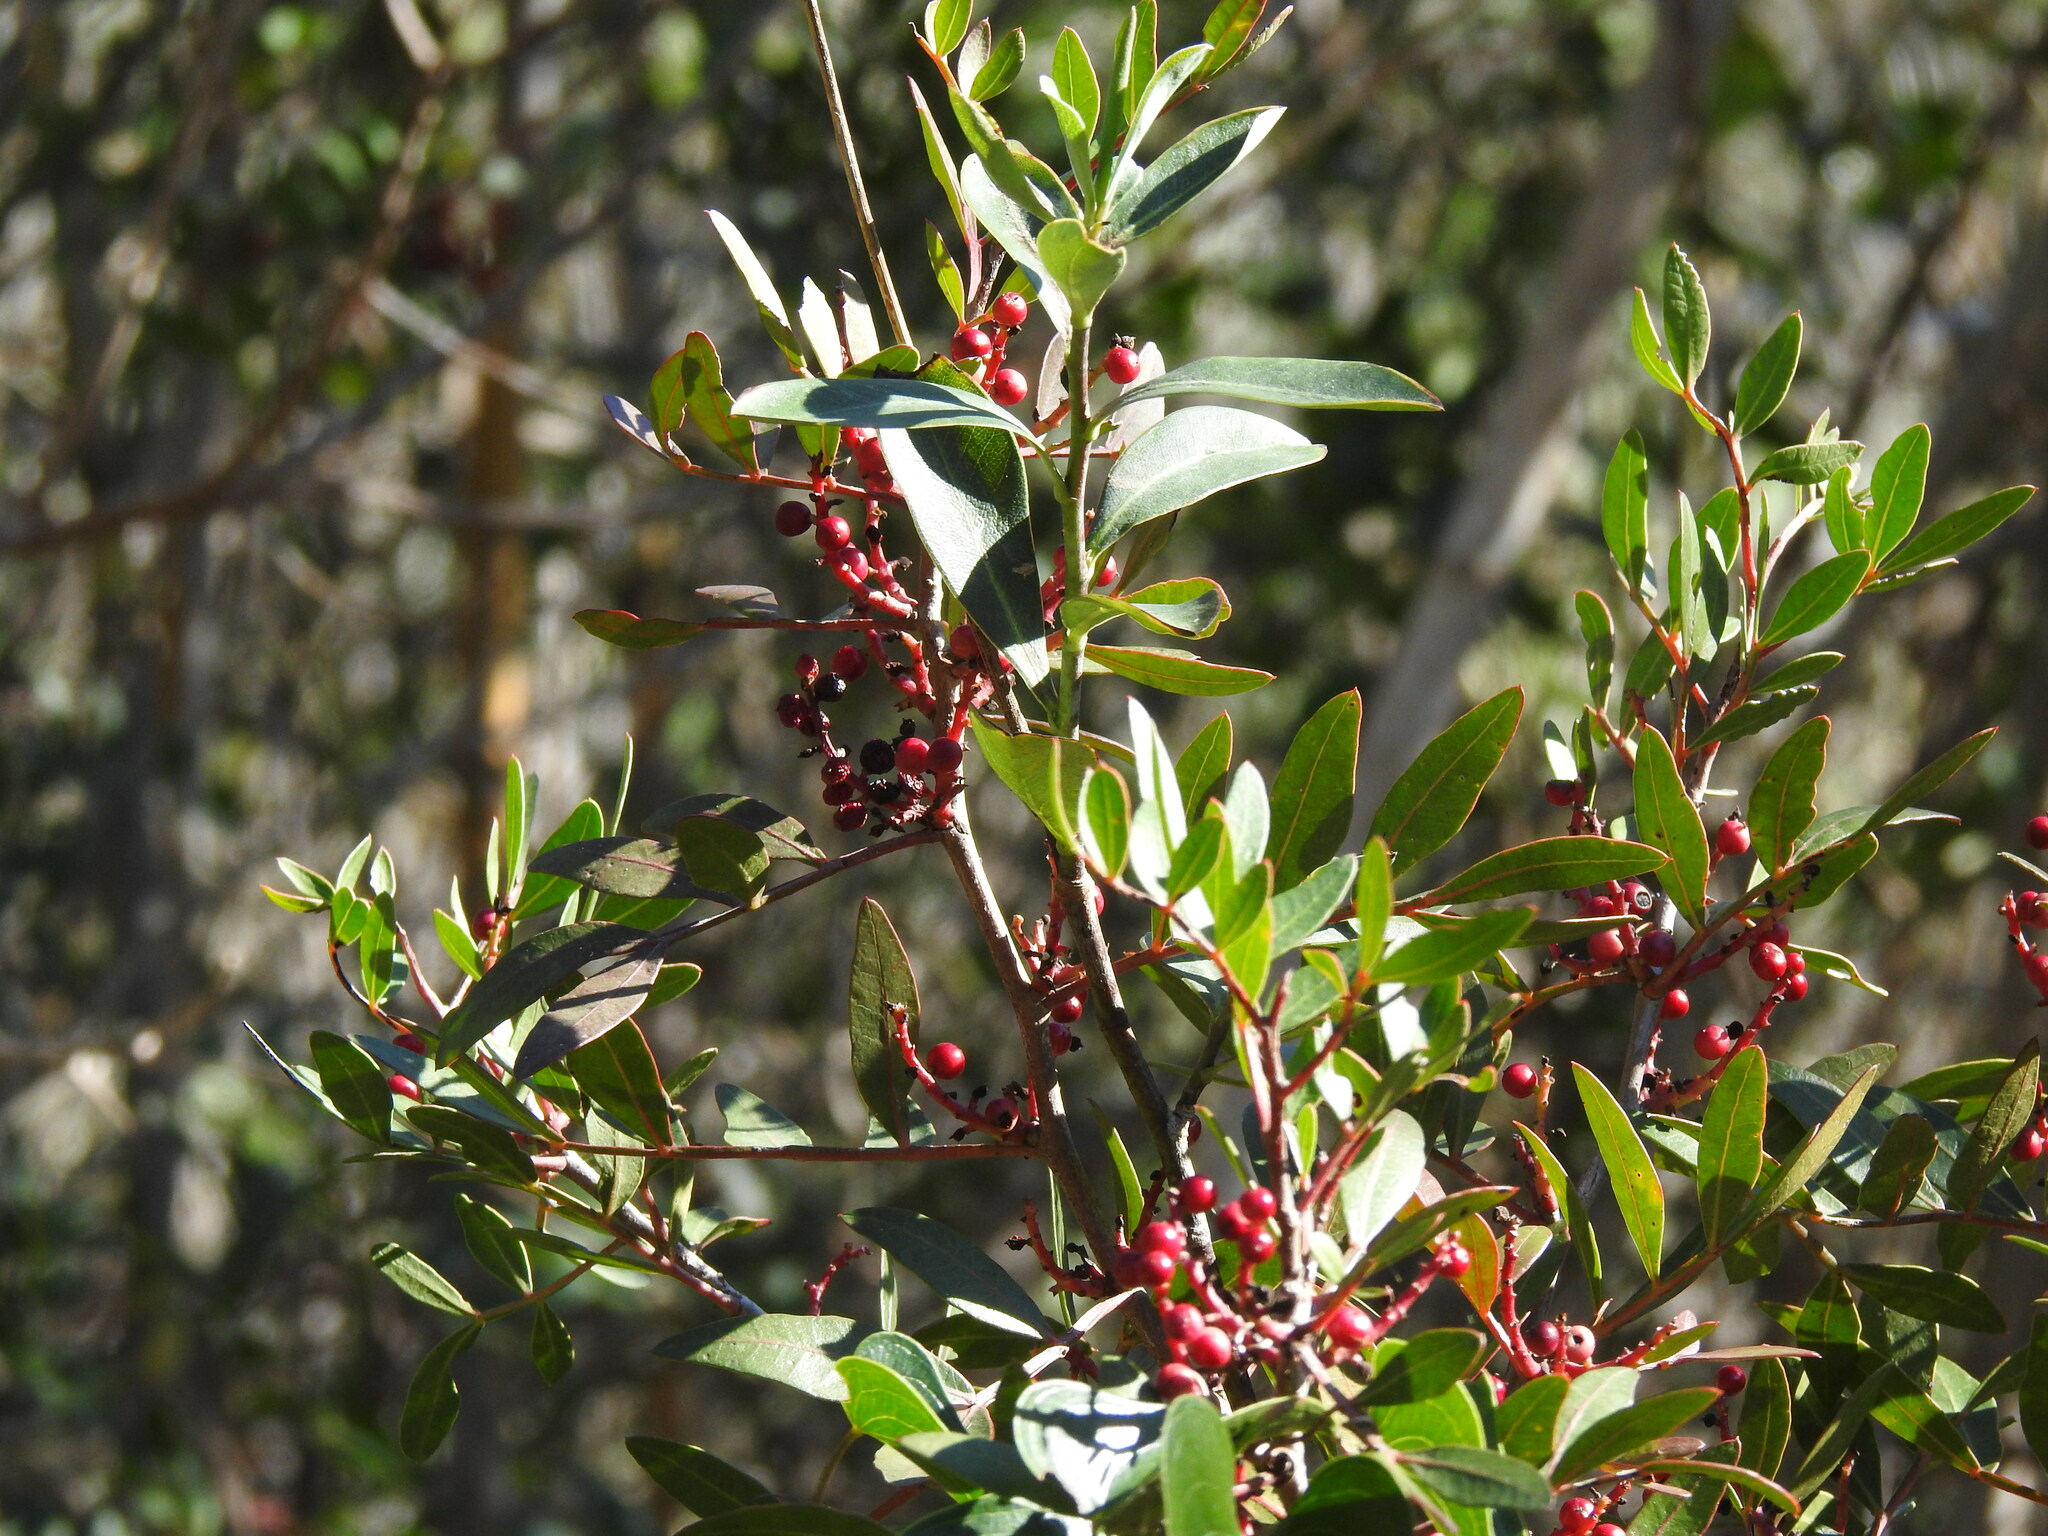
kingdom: Plantae
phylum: Tracheophyta
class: Magnoliopsida
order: Sapindales
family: Anacardiaceae
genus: Pistacia
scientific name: Pistacia lentiscus
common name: Lentisk
